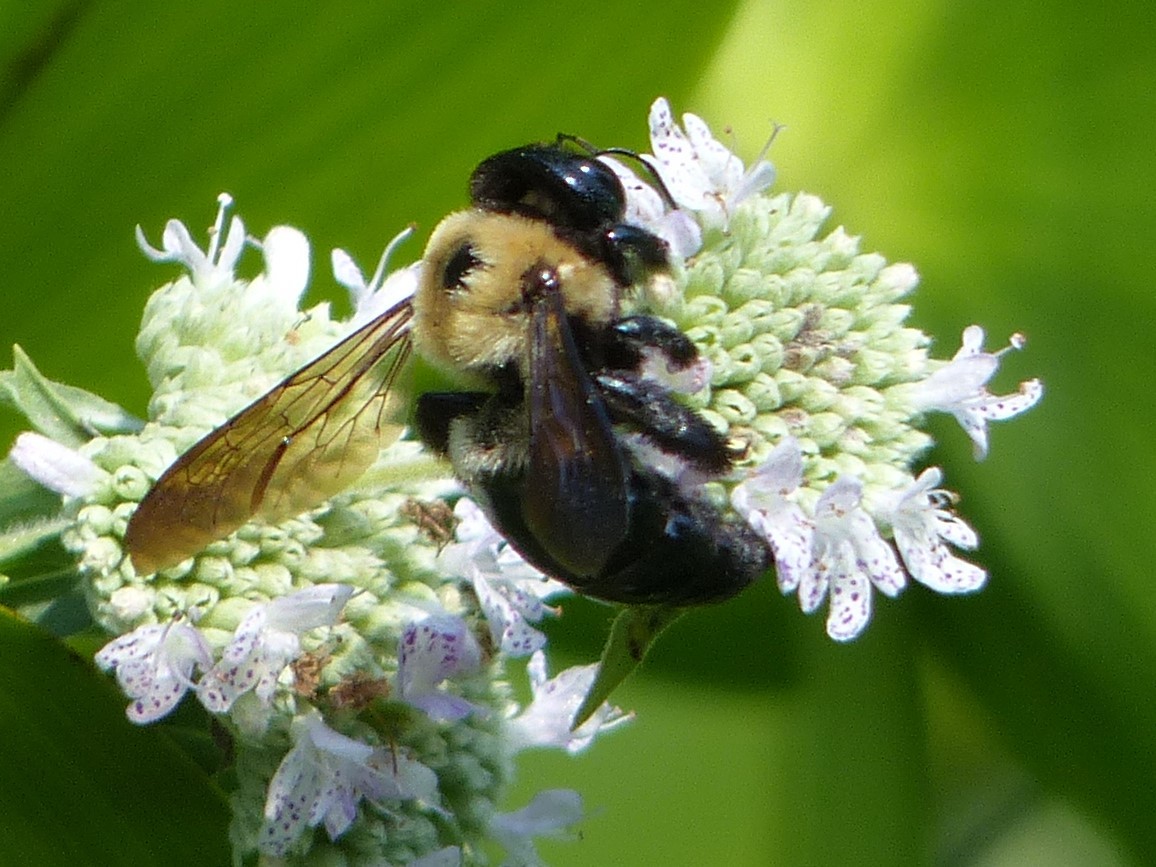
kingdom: Animalia
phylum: Arthropoda
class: Insecta
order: Hymenoptera
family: Apidae
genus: Xylocopa
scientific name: Xylocopa virginica
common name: Carpenter bee
